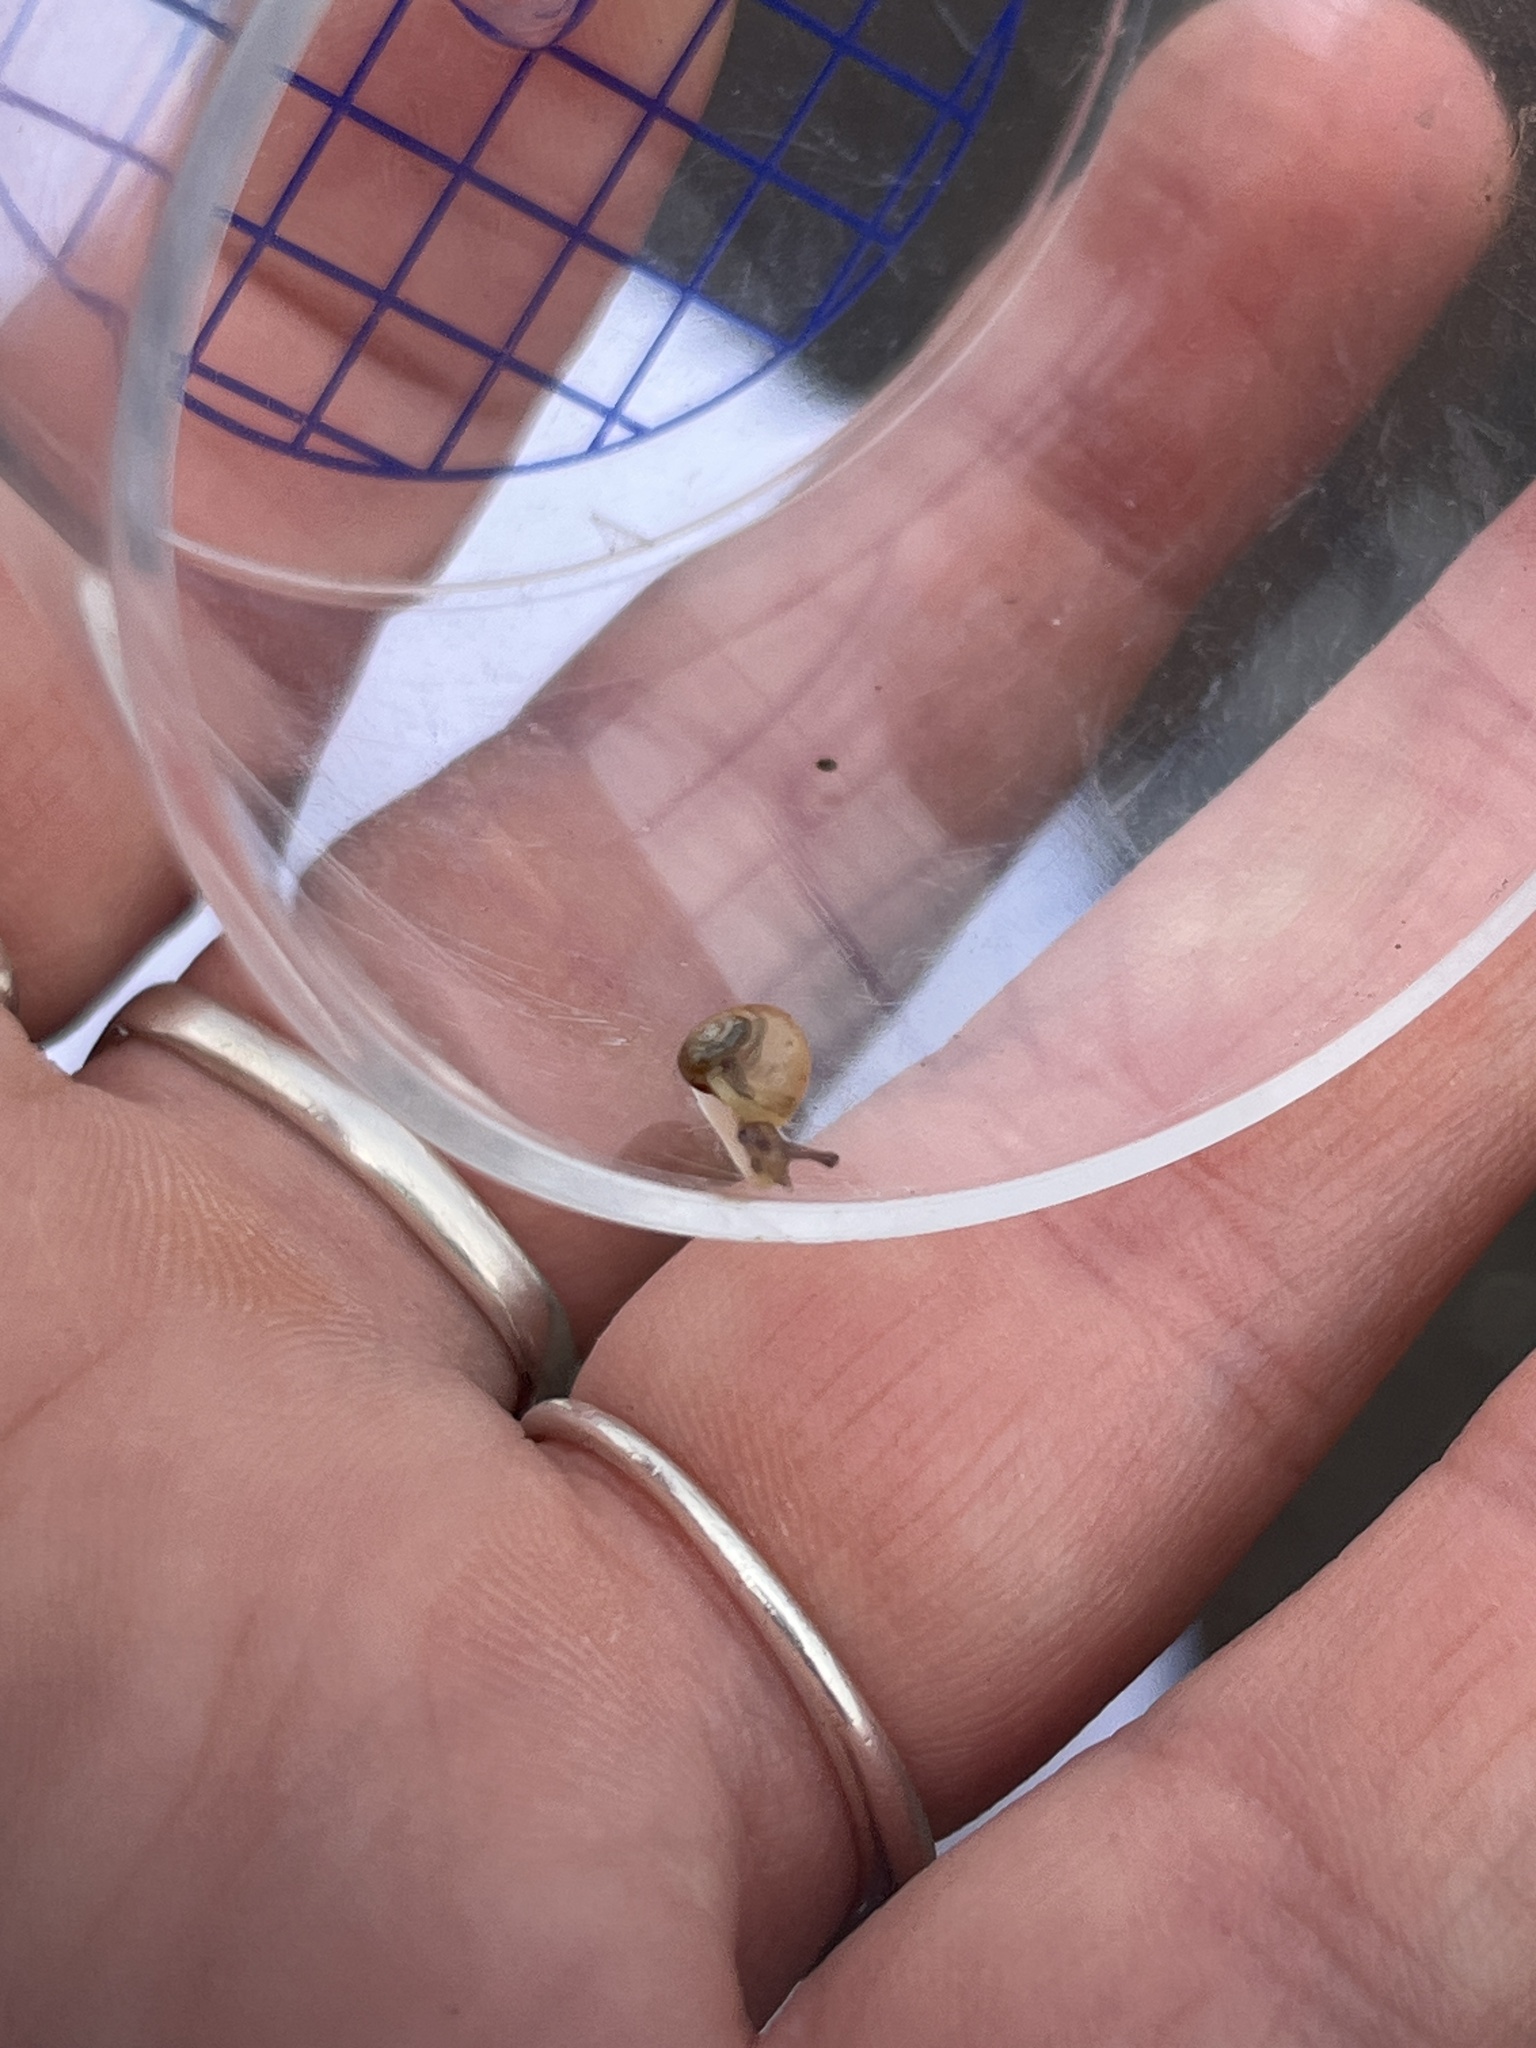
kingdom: Animalia
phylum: Mollusca
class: Gastropoda
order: Stylommatophora
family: Helicidae
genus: Cornu
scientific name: Cornu aspersum
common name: Brown garden snail
